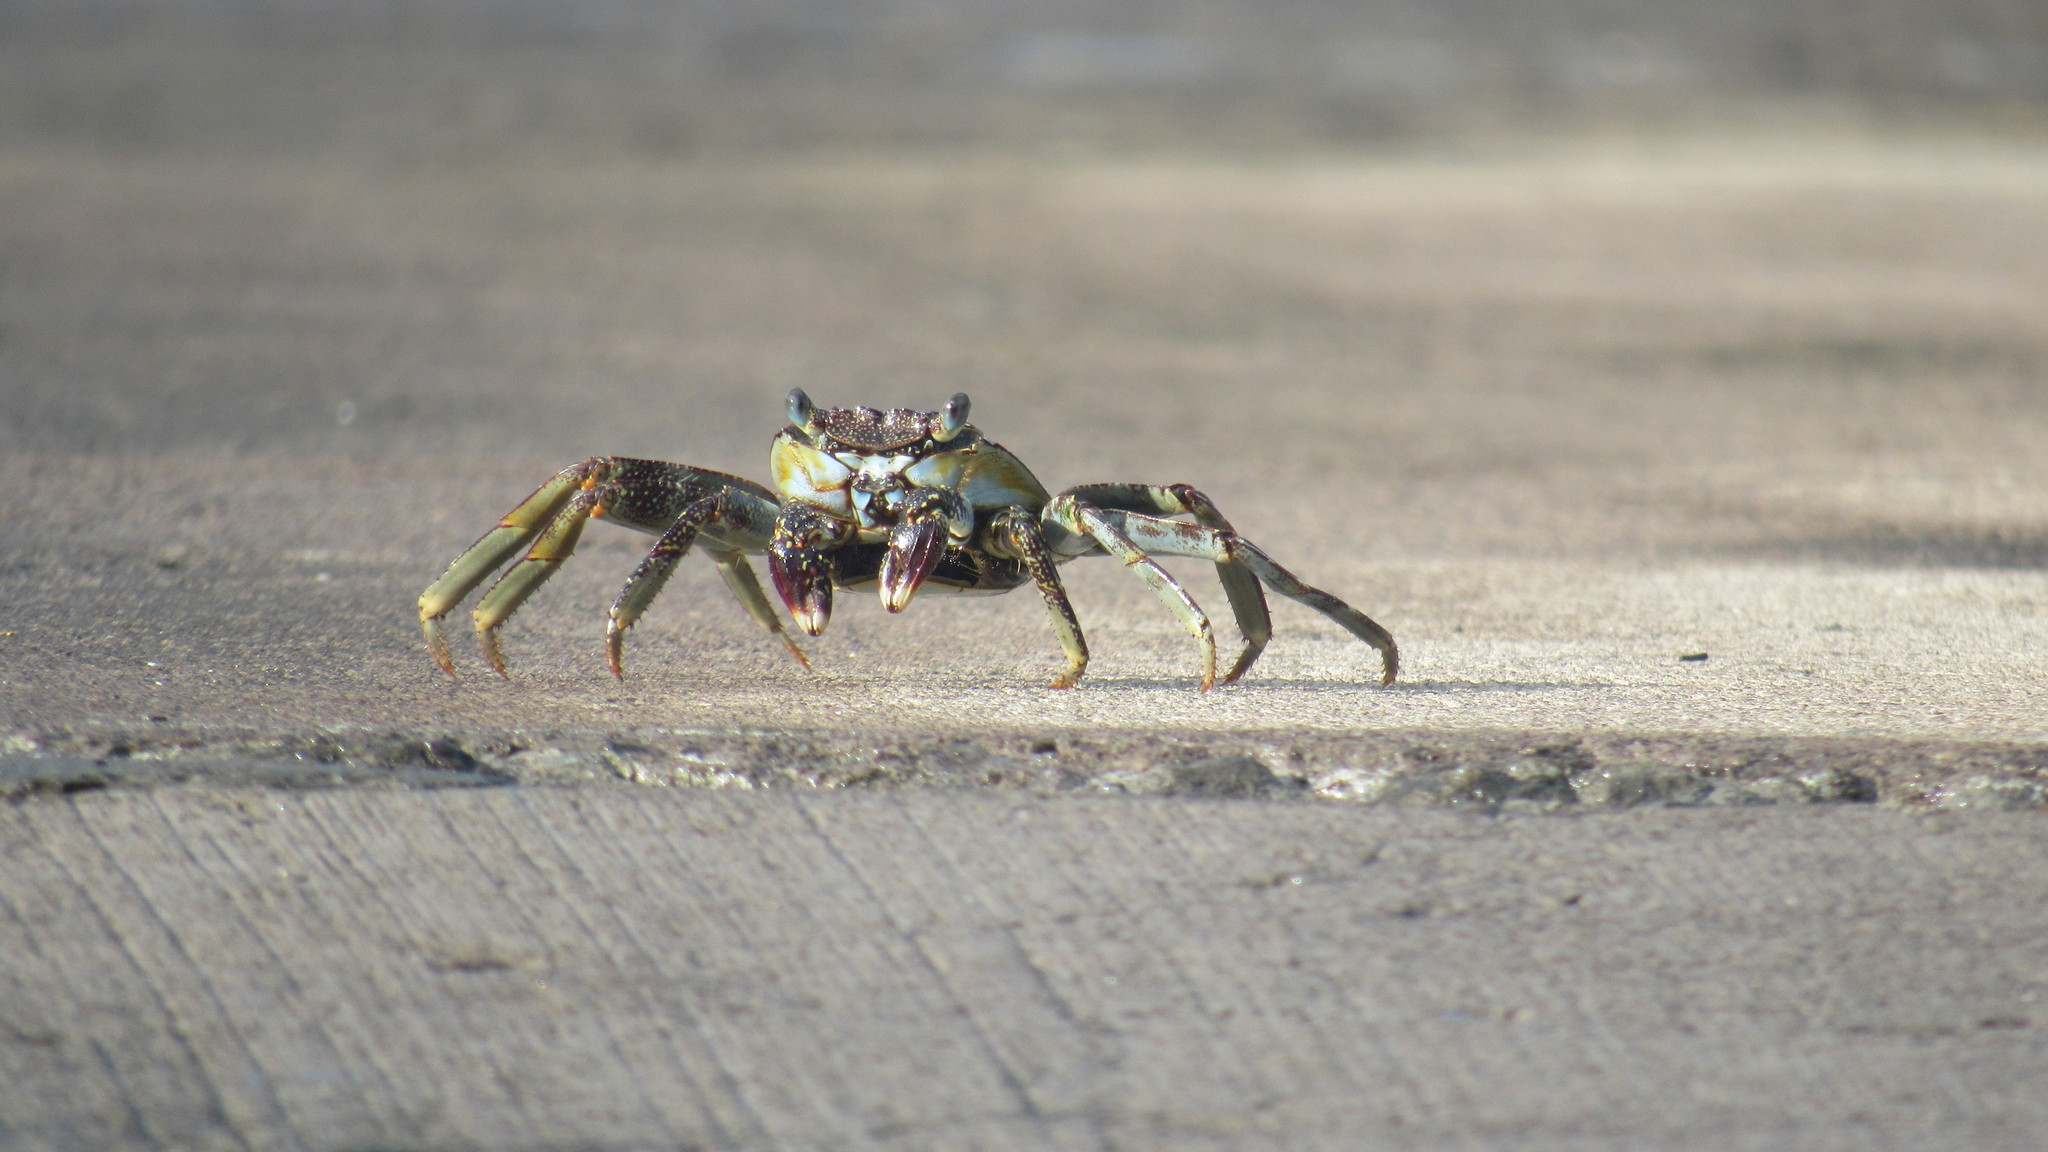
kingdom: Animalia
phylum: Arthropoda
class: Malacostraca
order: Decapoda
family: Grapsidae
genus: Grapsus
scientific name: Grapsus grapsus
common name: Sally lightfoot
